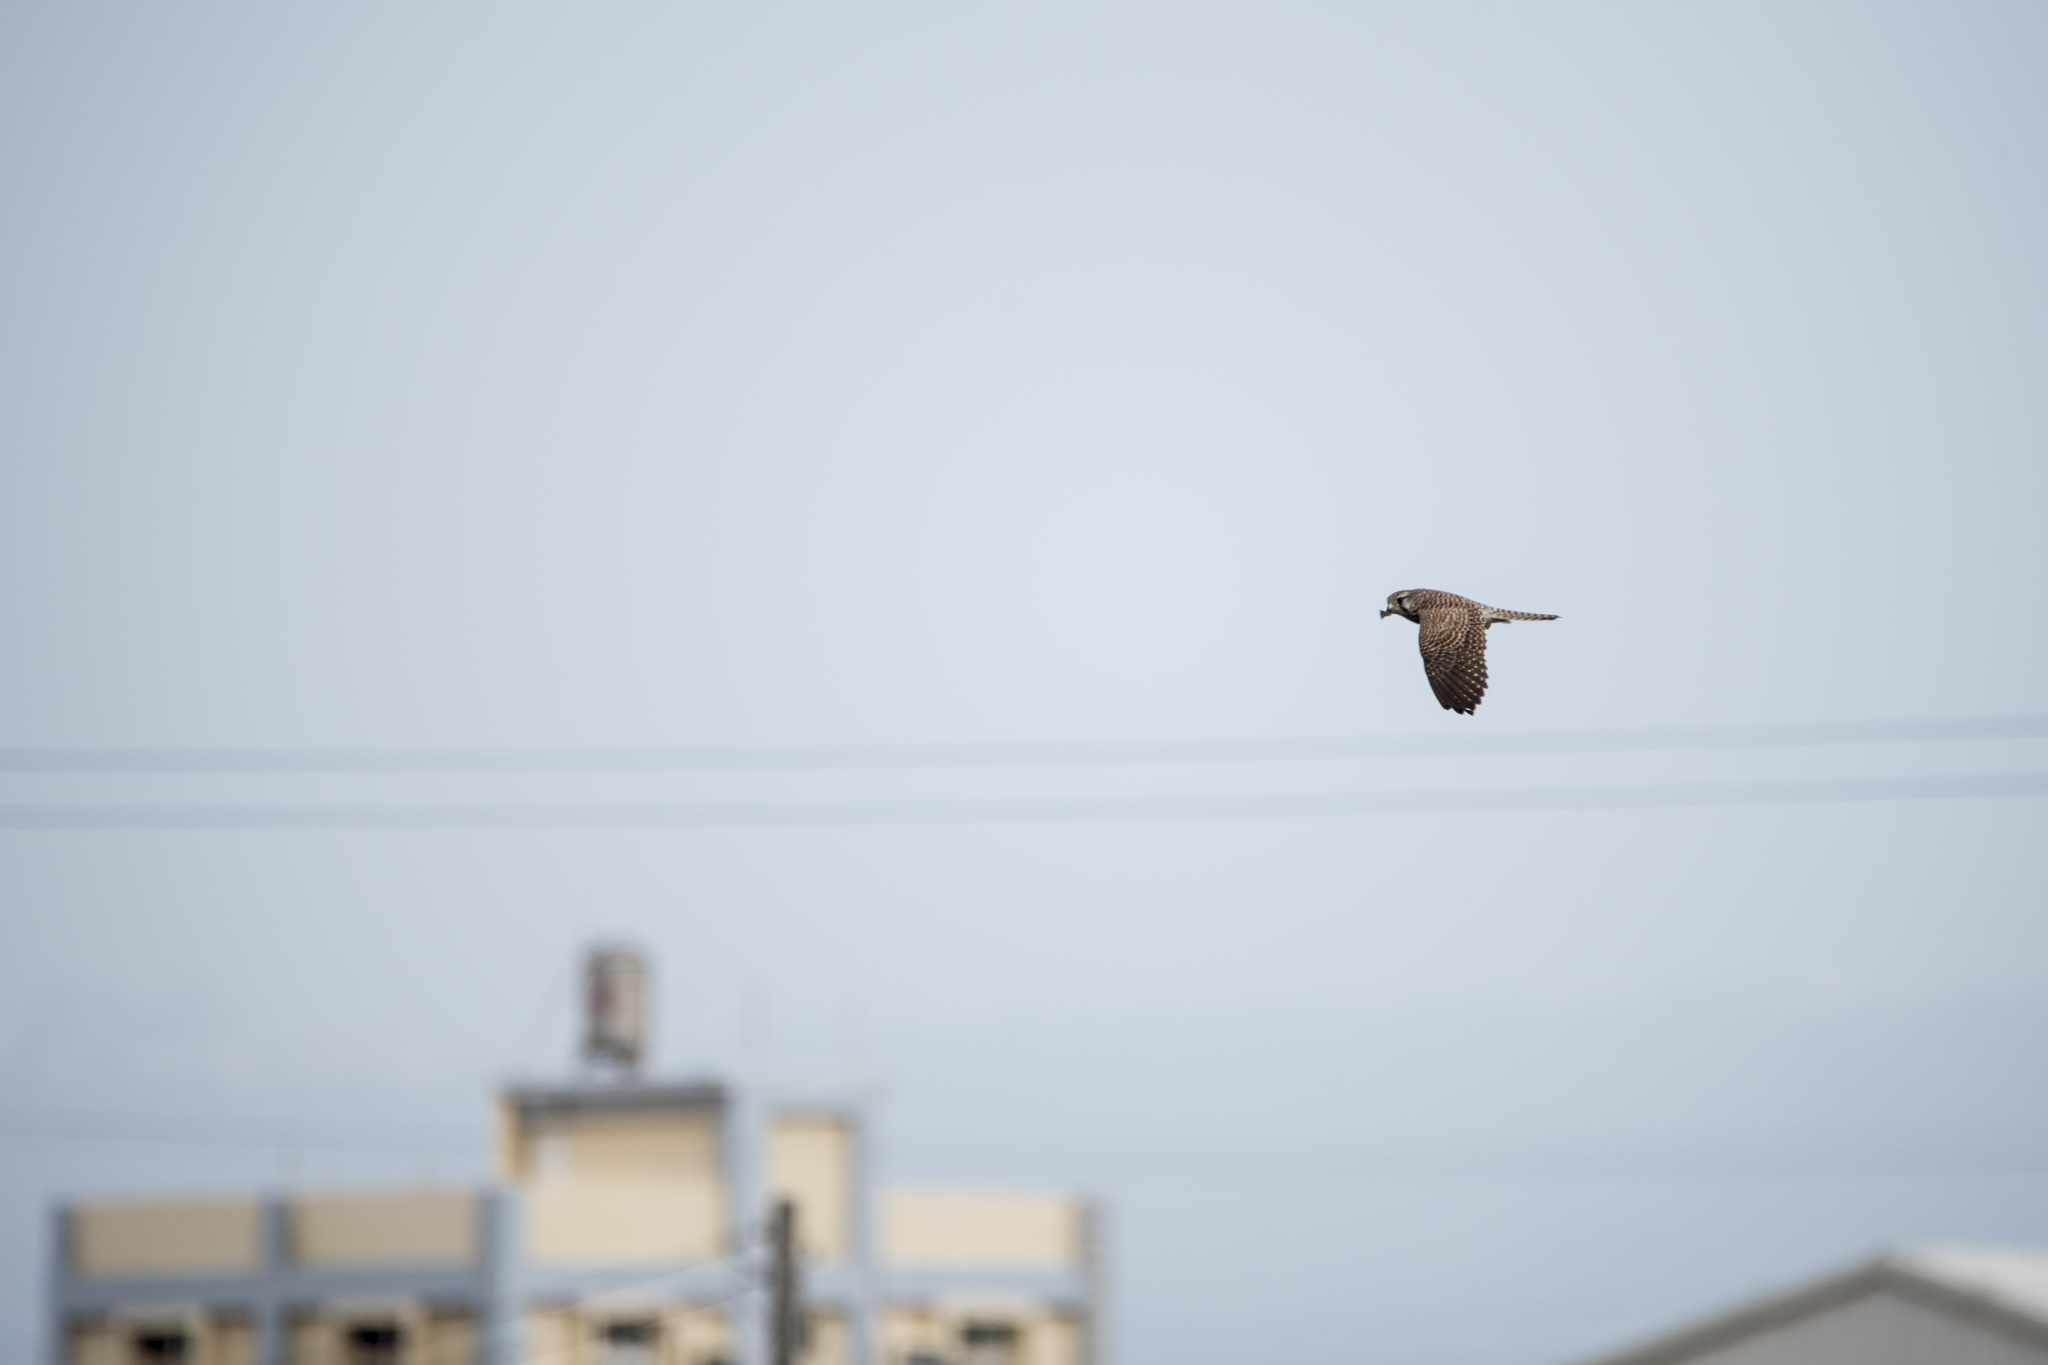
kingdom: Animalia
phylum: Chordata
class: Aves
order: Falconiformes
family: Falconidae
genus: Falco
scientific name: Falco tinnunculus
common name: Common kestrel
